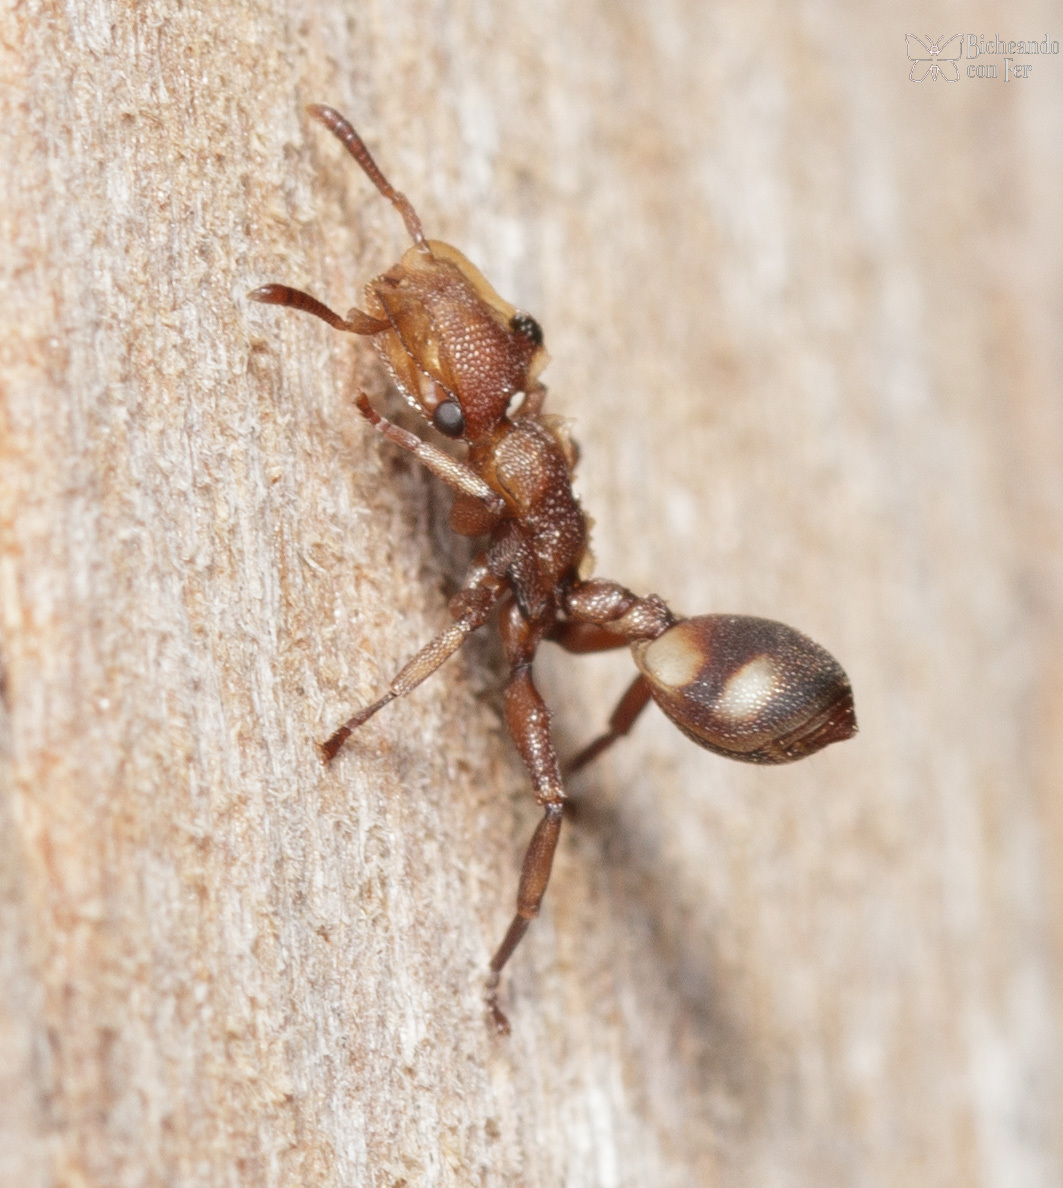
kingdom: Animalia
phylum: Arthropoda
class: Insecta
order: Hymenoptera
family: Formicidae
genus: Cephalotes
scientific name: Cephalotes umbraculatus
